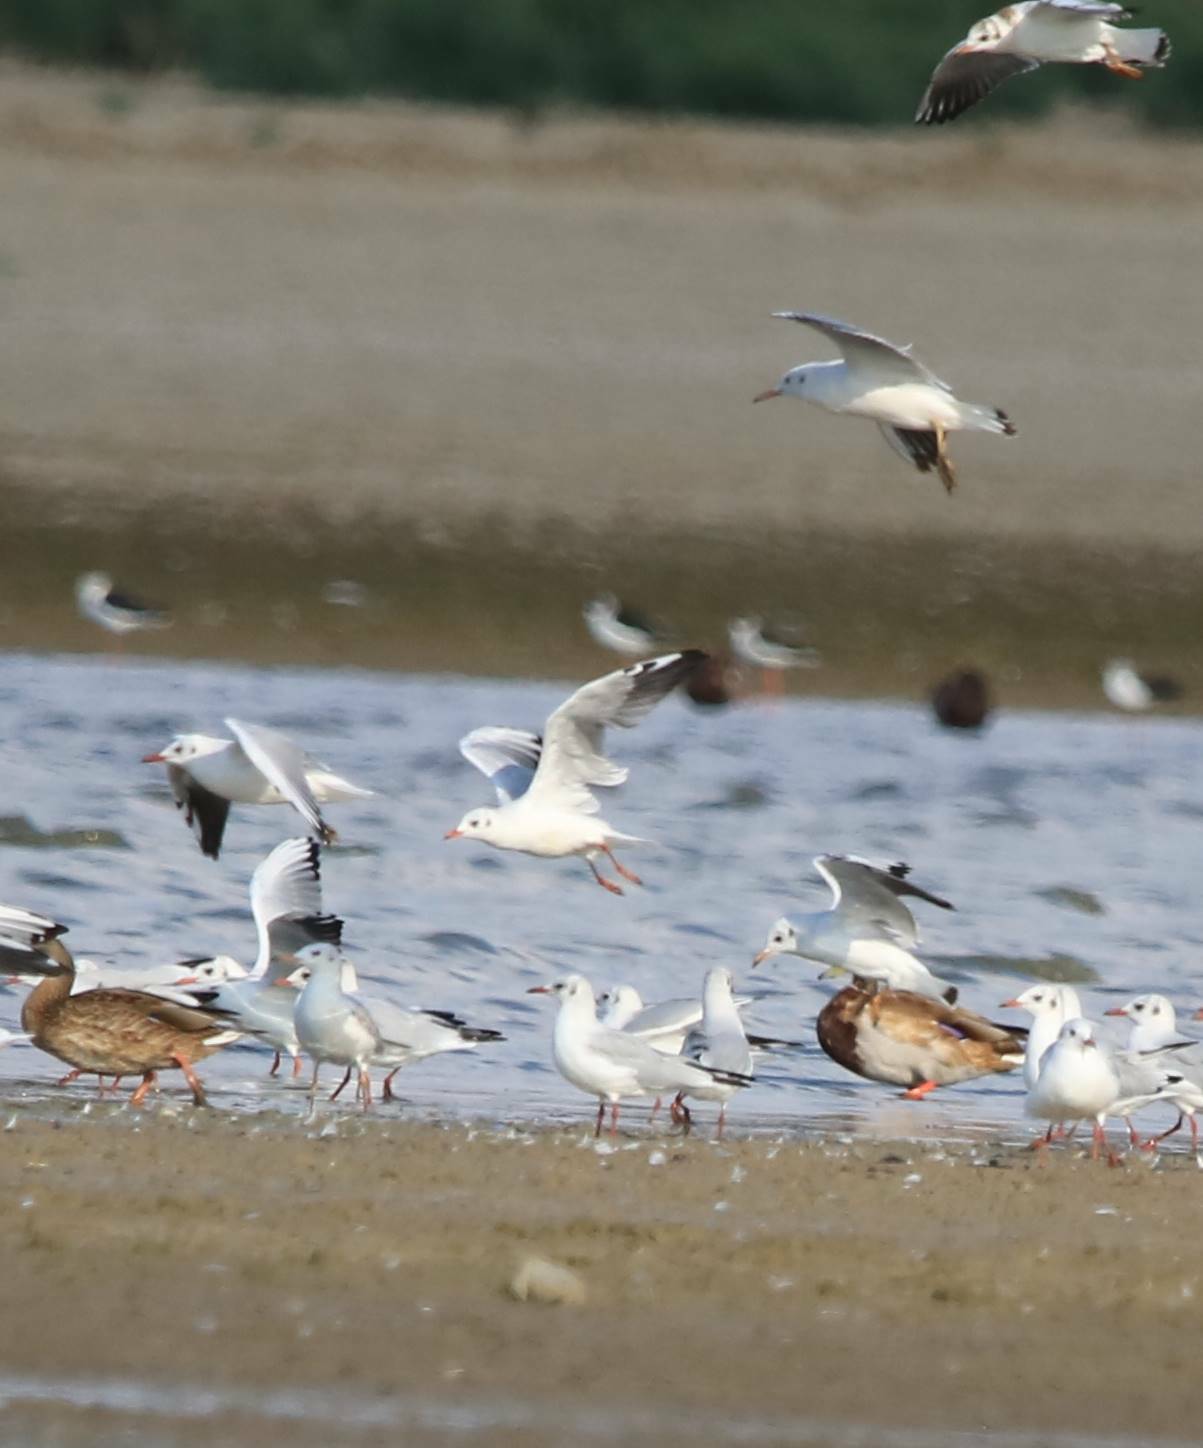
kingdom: Animalia
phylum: Chordata
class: Aves
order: Charadriiformes
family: Laridae
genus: Chroicocephalus
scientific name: Chroicocephalus ridibundus
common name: Black-headed gull
